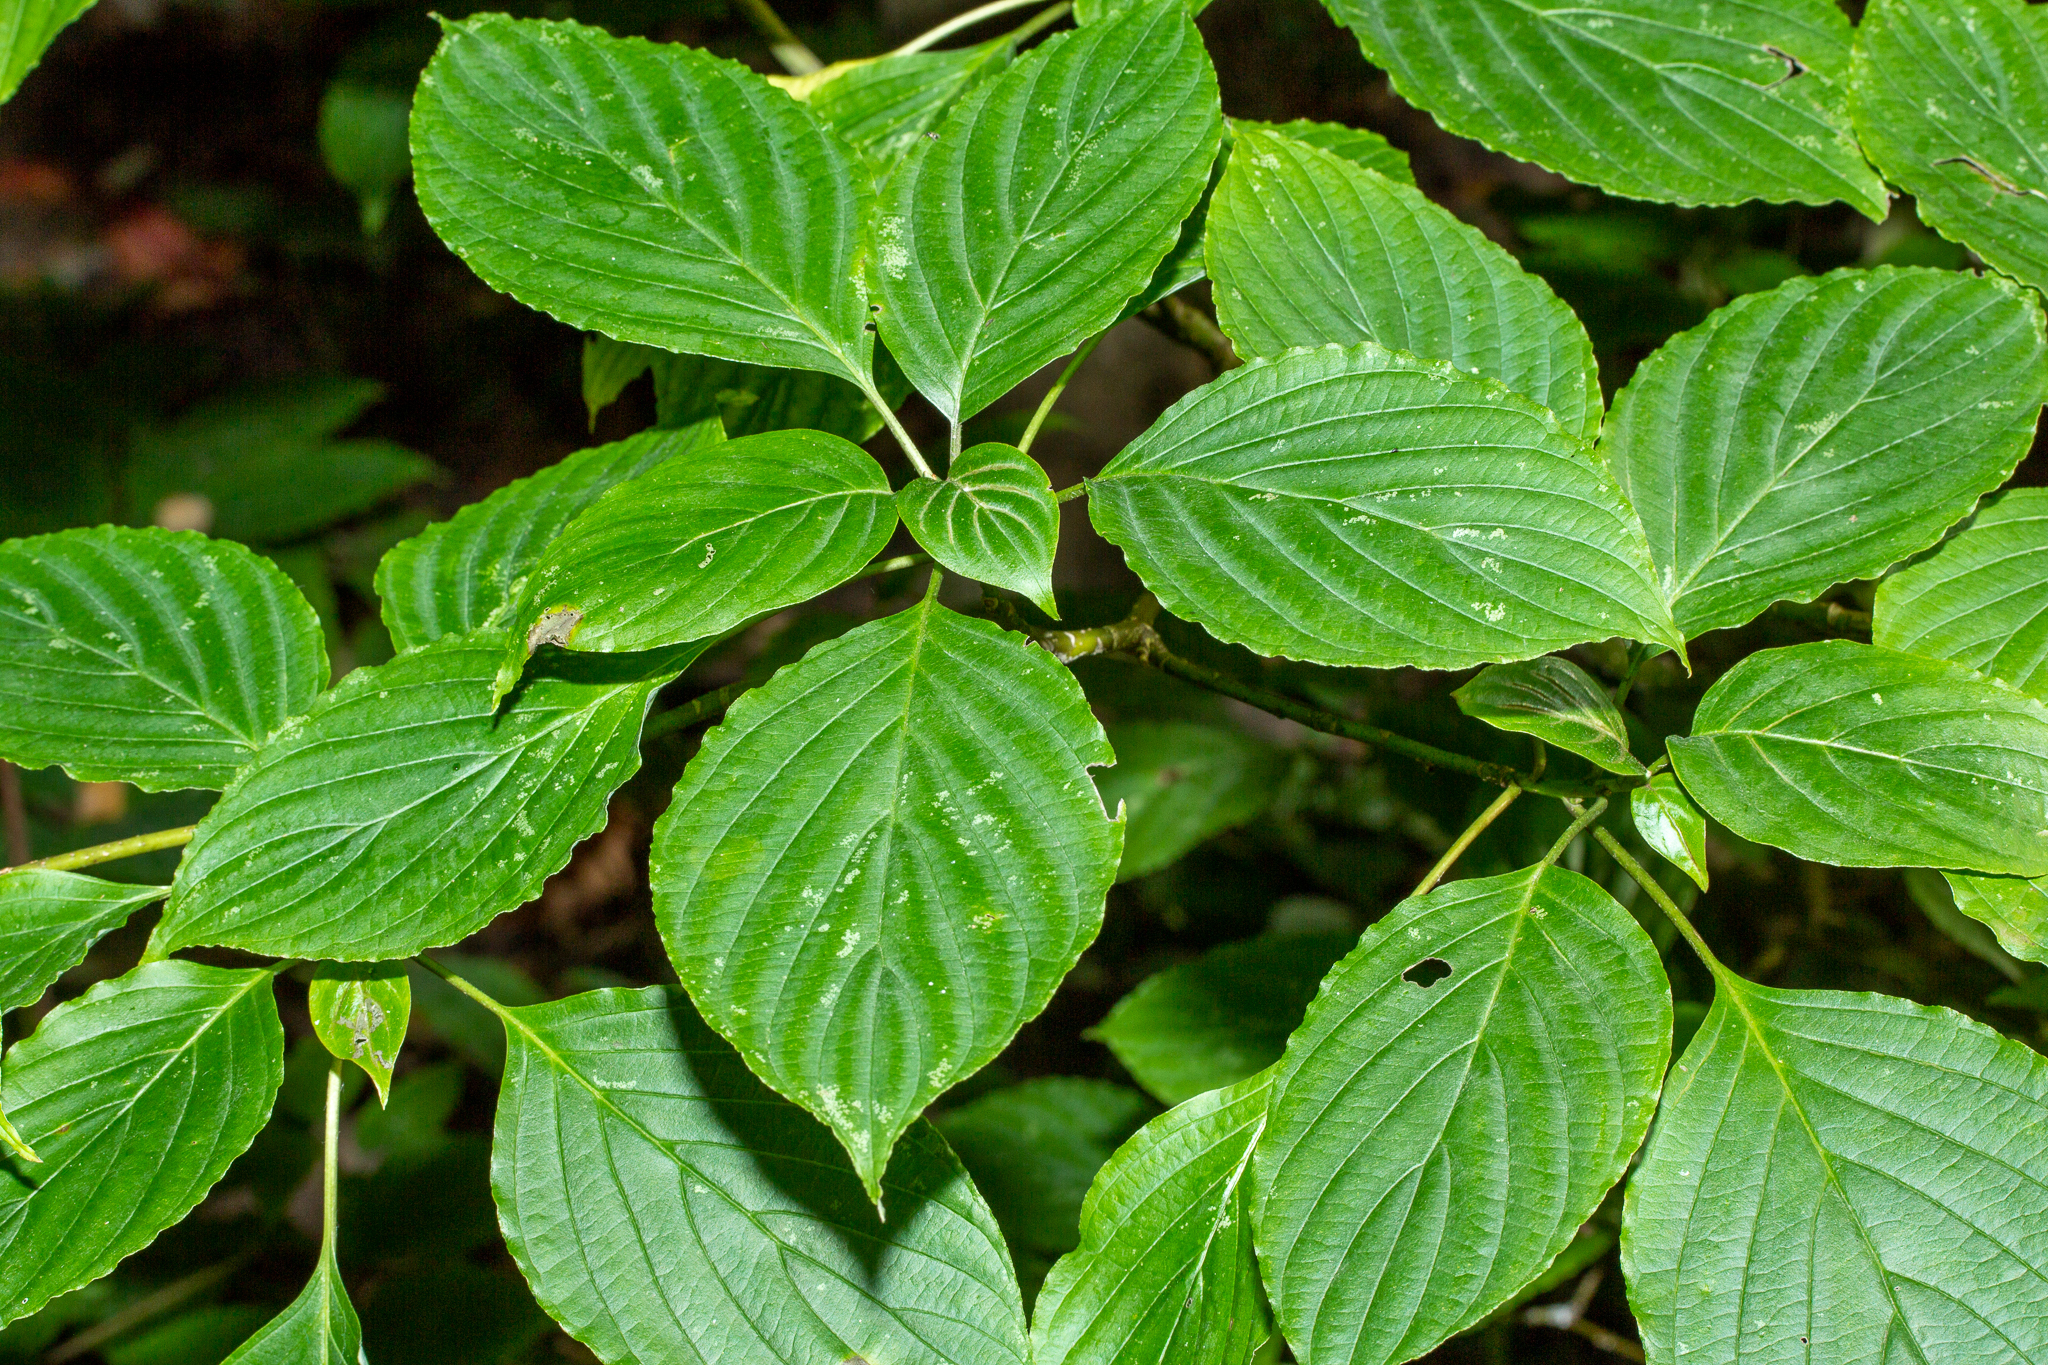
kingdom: Plantae
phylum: Tracheophyta
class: Magnoliopsida
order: Cornales
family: Cornaceae
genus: Cornus
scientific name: Cornus alternifolia
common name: Pagoda dogwood
